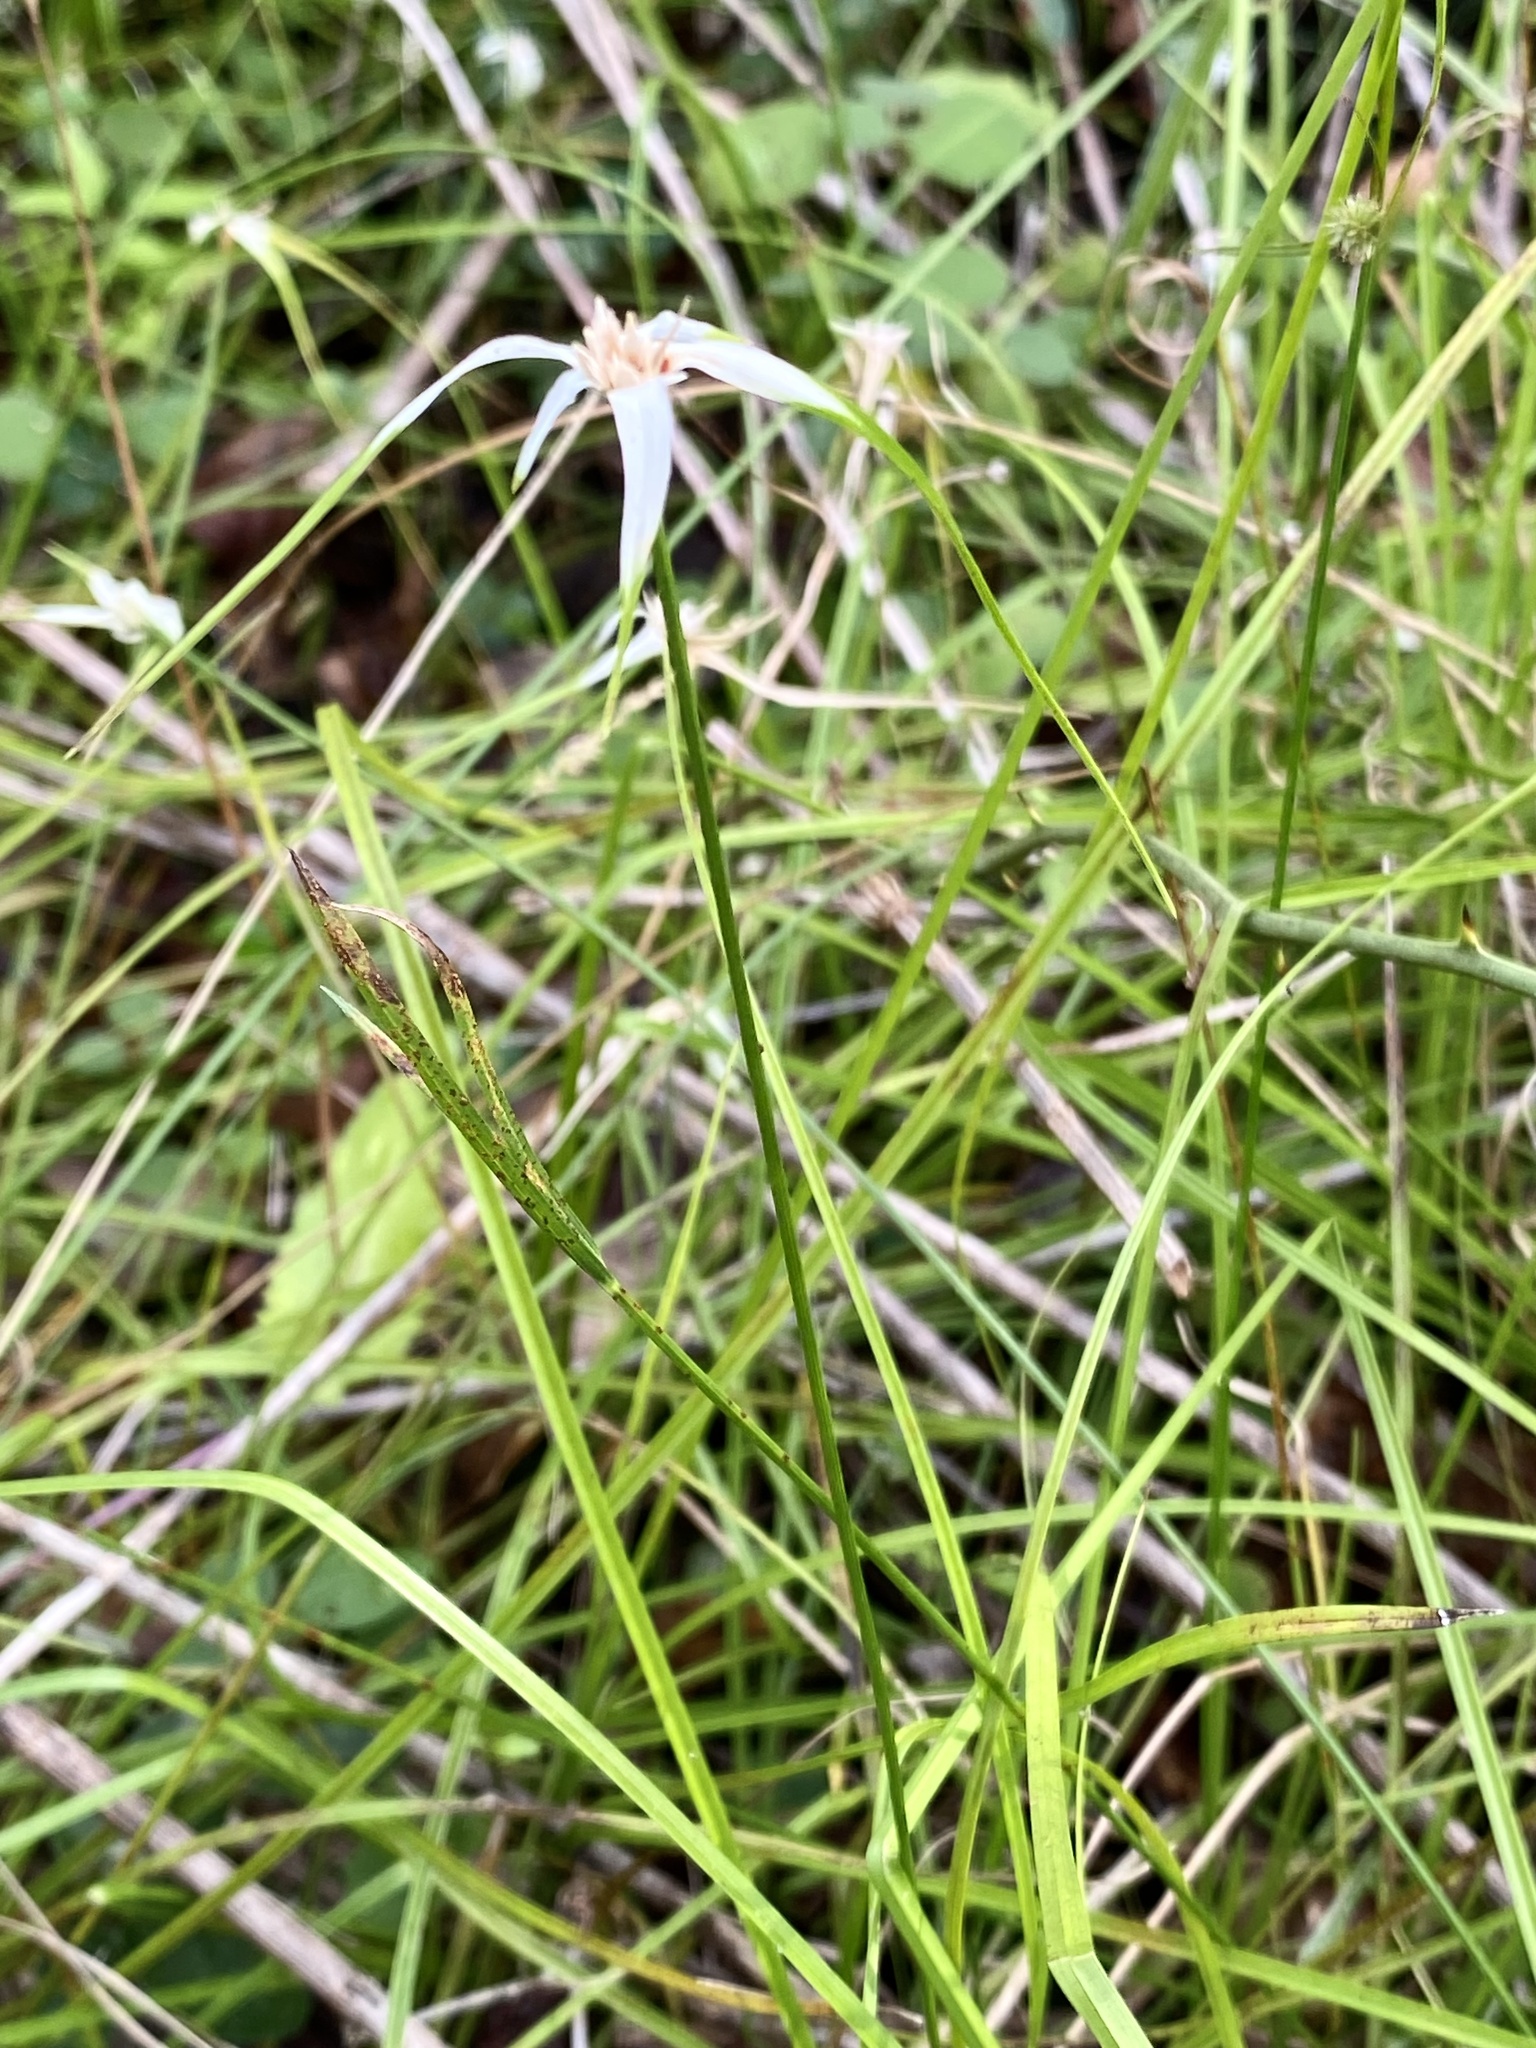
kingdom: Plantae
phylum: Tracheophyta
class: Liliopsida
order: Poales
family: Cyperaceae
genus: Rhynchospora
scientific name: Rhynchospora colorata
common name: Star sedge
